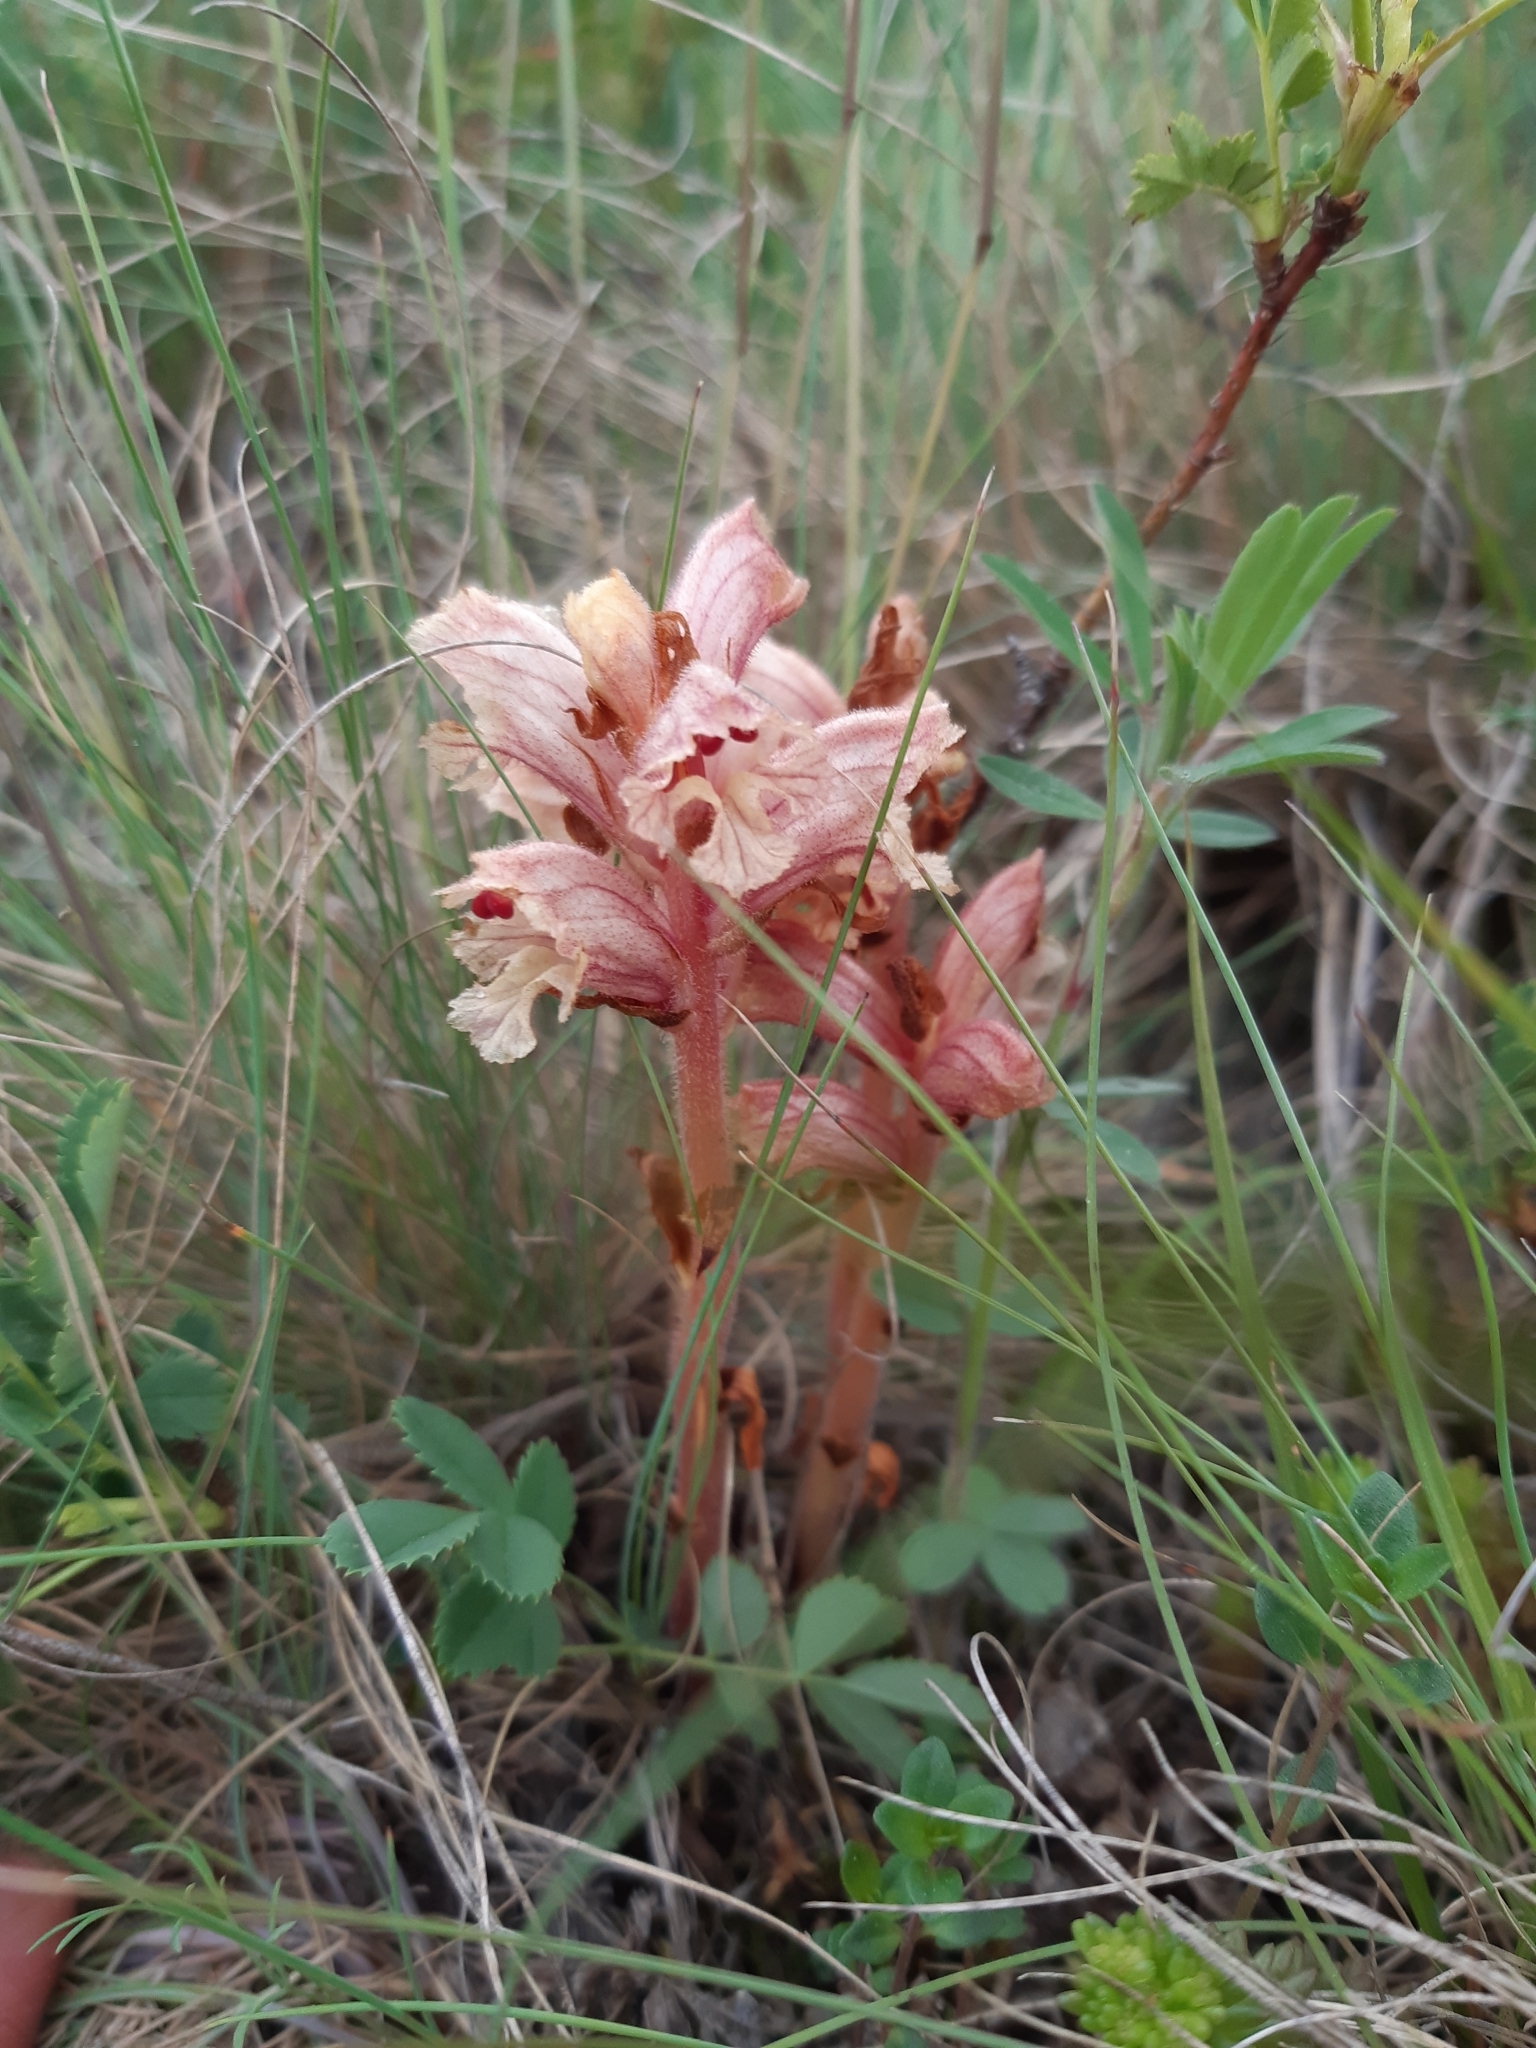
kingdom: Plantae
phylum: Tracheophyta
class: Magnoliopsida
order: Lamiales
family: Orobanchaceae
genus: Orobanche
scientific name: Orobanche alba
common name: Thyme broomrape
